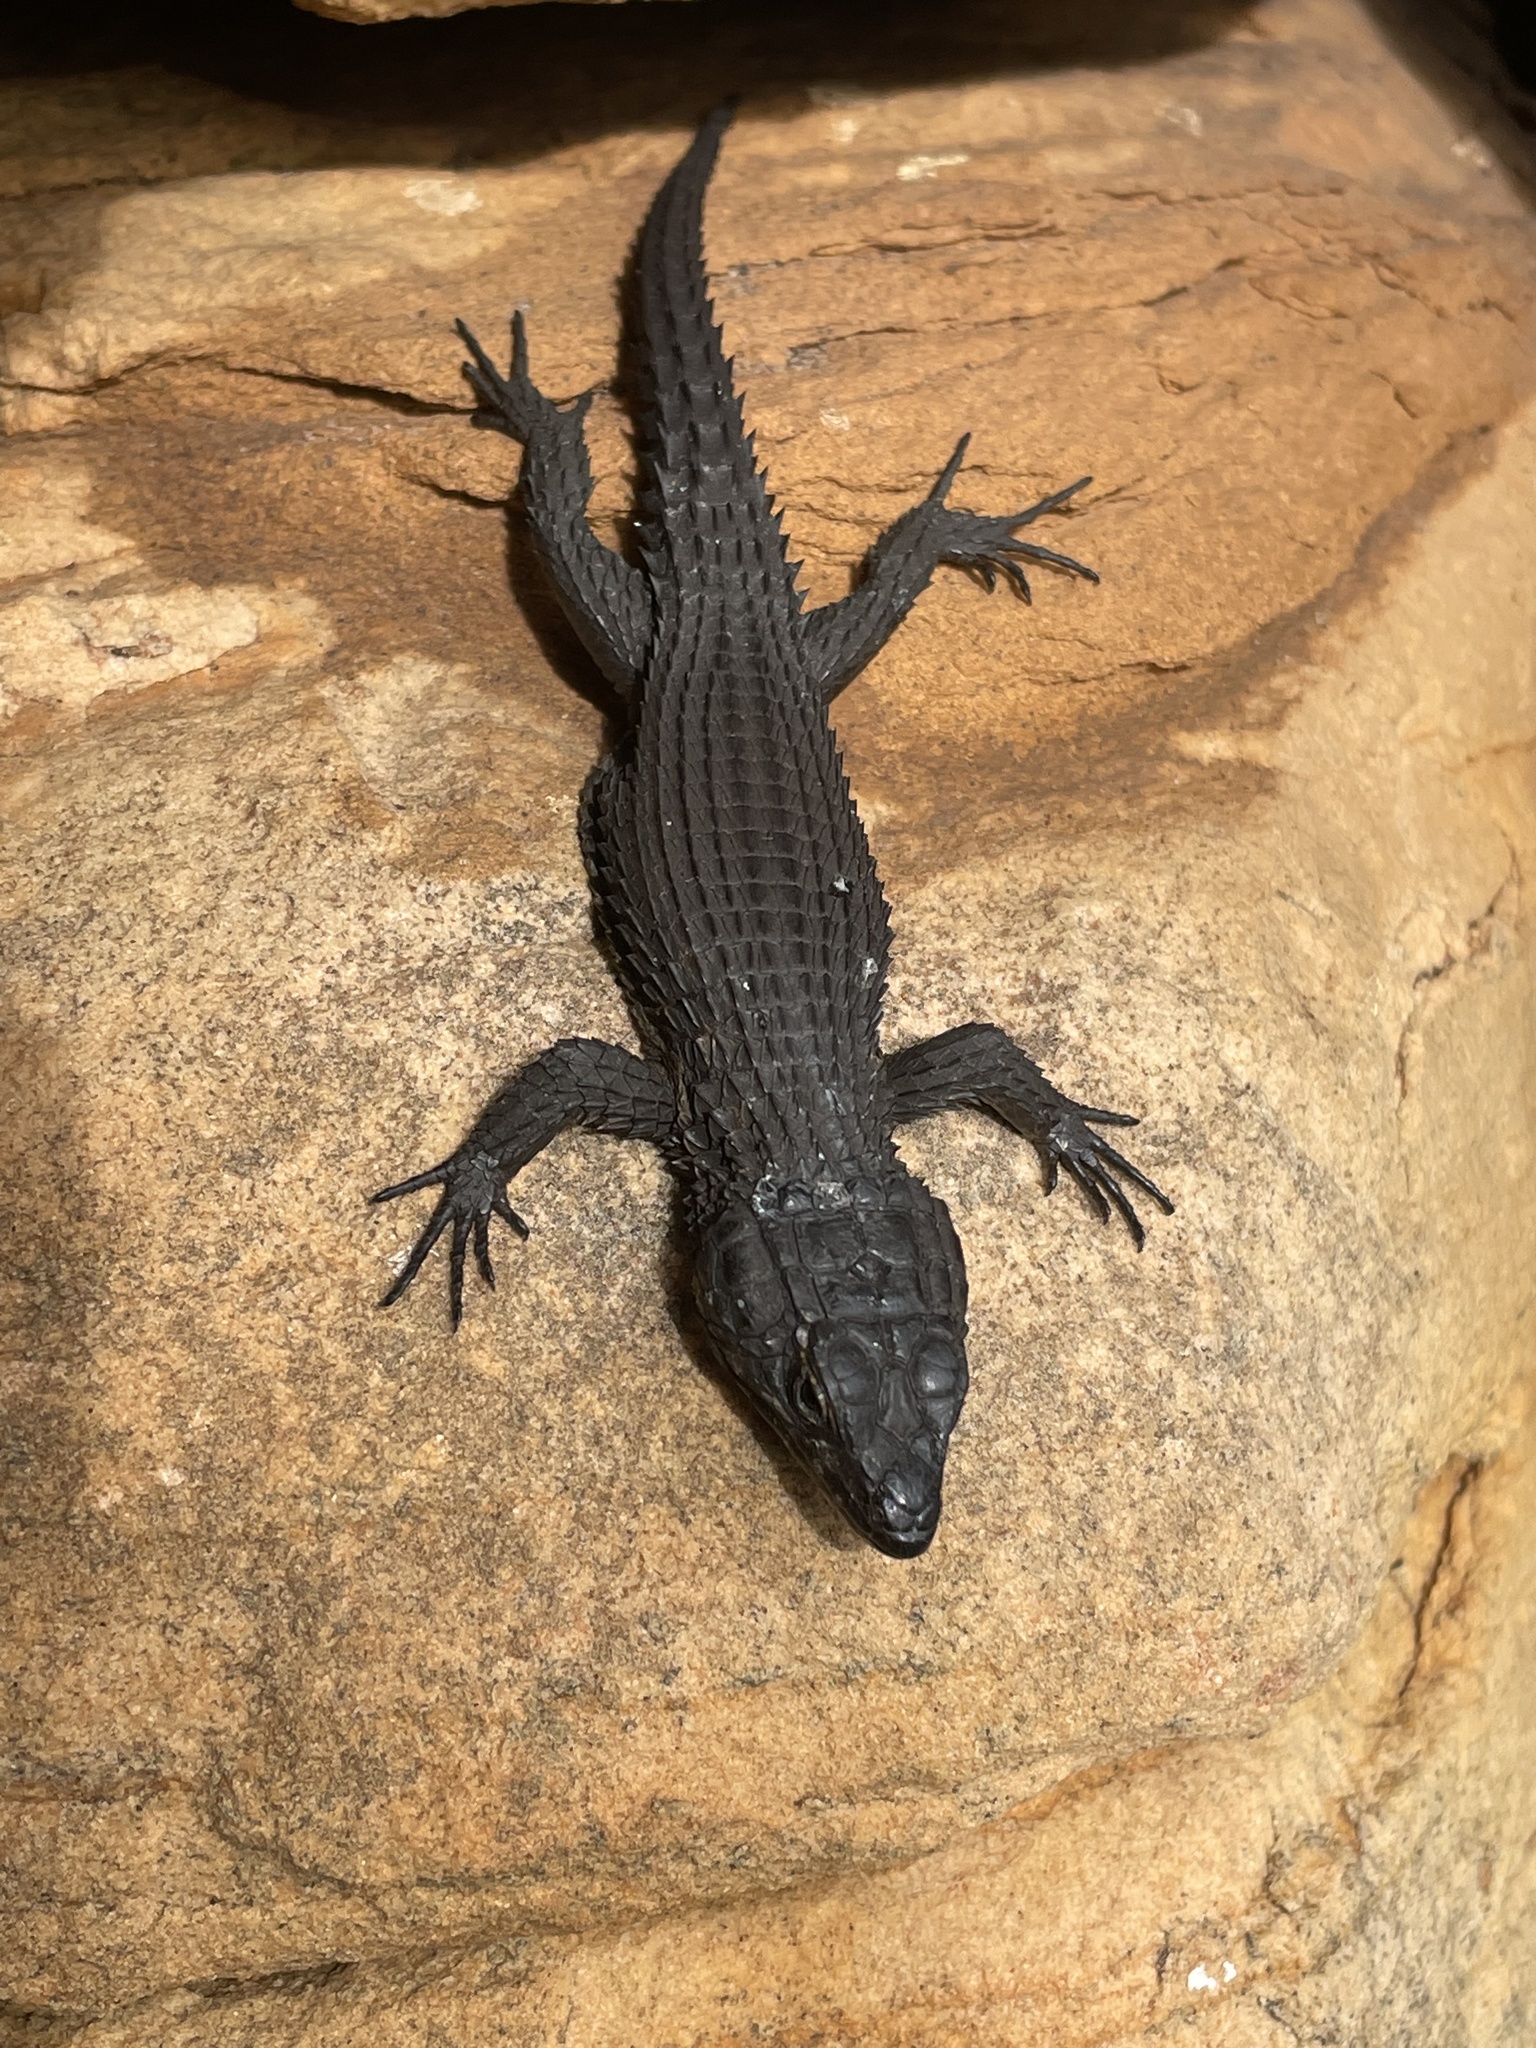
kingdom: Animalia
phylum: Chordata
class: Squamata
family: Cordylidae
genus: Cordylus
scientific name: Cordylus niger
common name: Black girdled lizard
